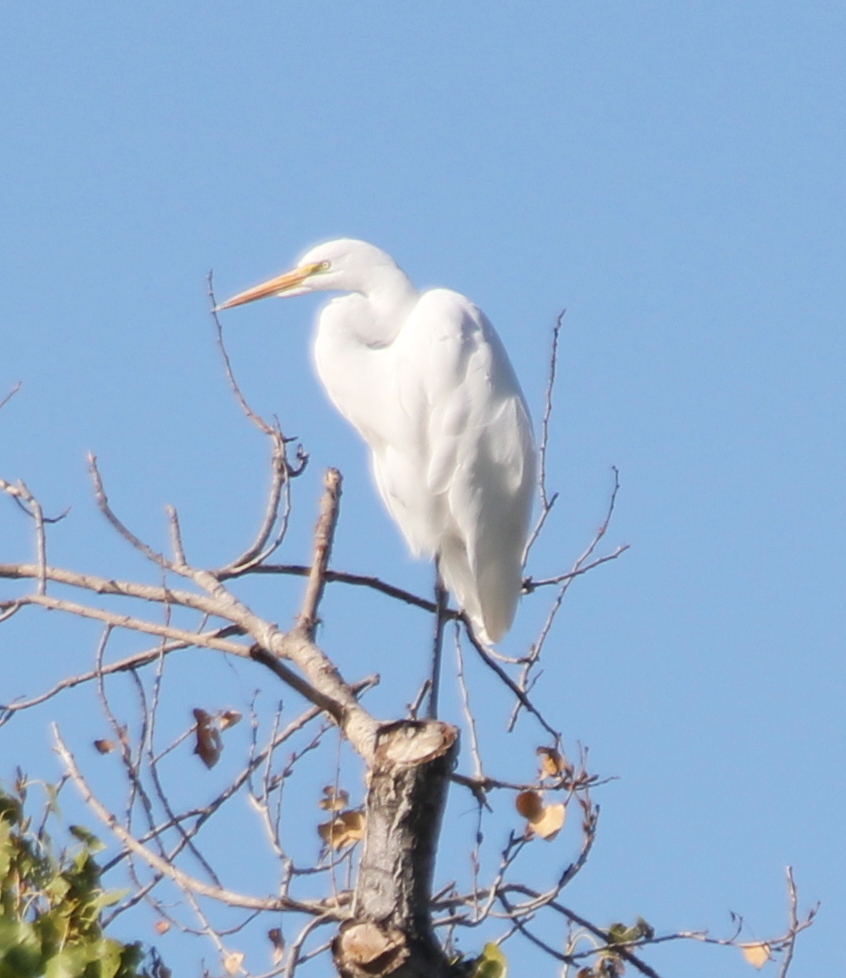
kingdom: Animalia
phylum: Chordata
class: Aves
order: Pelecaniformes
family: Ardeidae
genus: Ardea
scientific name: Ardea alba
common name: Great egret
